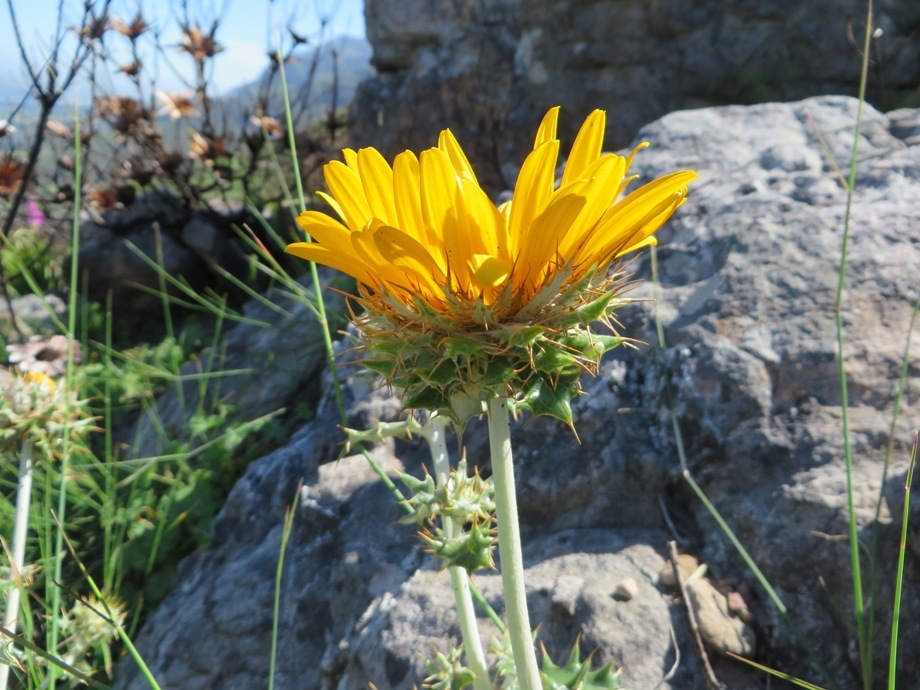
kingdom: Plantae
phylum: Tracheophyta
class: Magnoliopsida
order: Asterales
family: Asteraceae
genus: Berkheya
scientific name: Berkheya barbata
